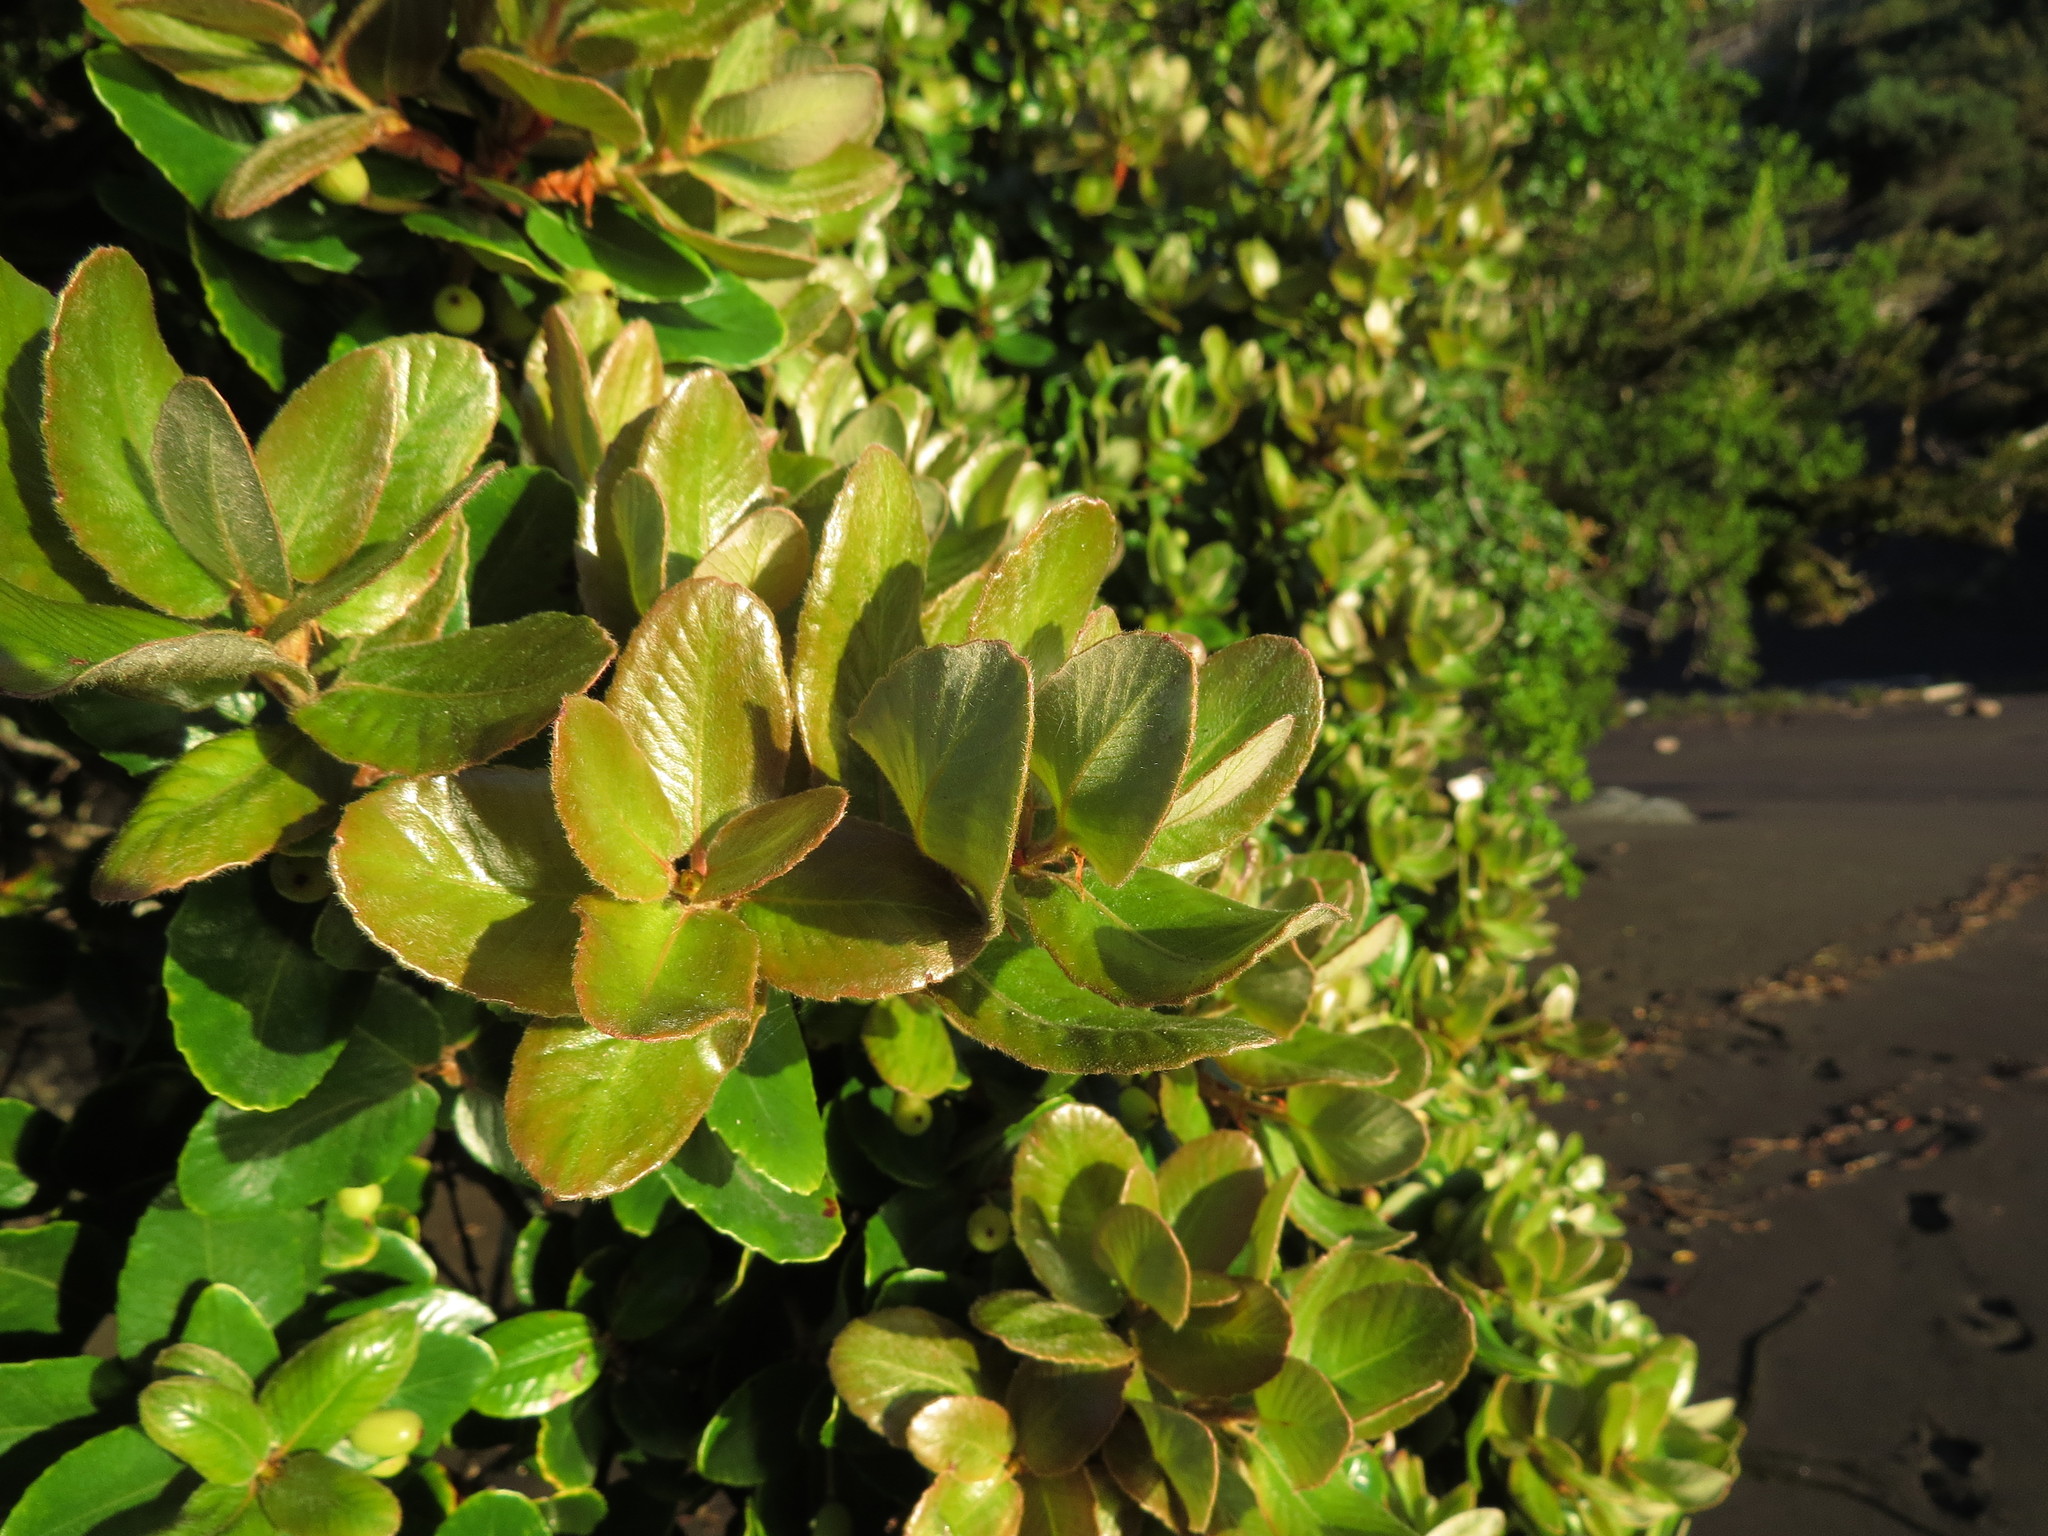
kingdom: Plantae
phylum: Tracheophyta
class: Magnoliopsida
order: Oxalidales
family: Cunoniaceae
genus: Eucryphia
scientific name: Eucryphia cordifolia
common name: Ulmo
